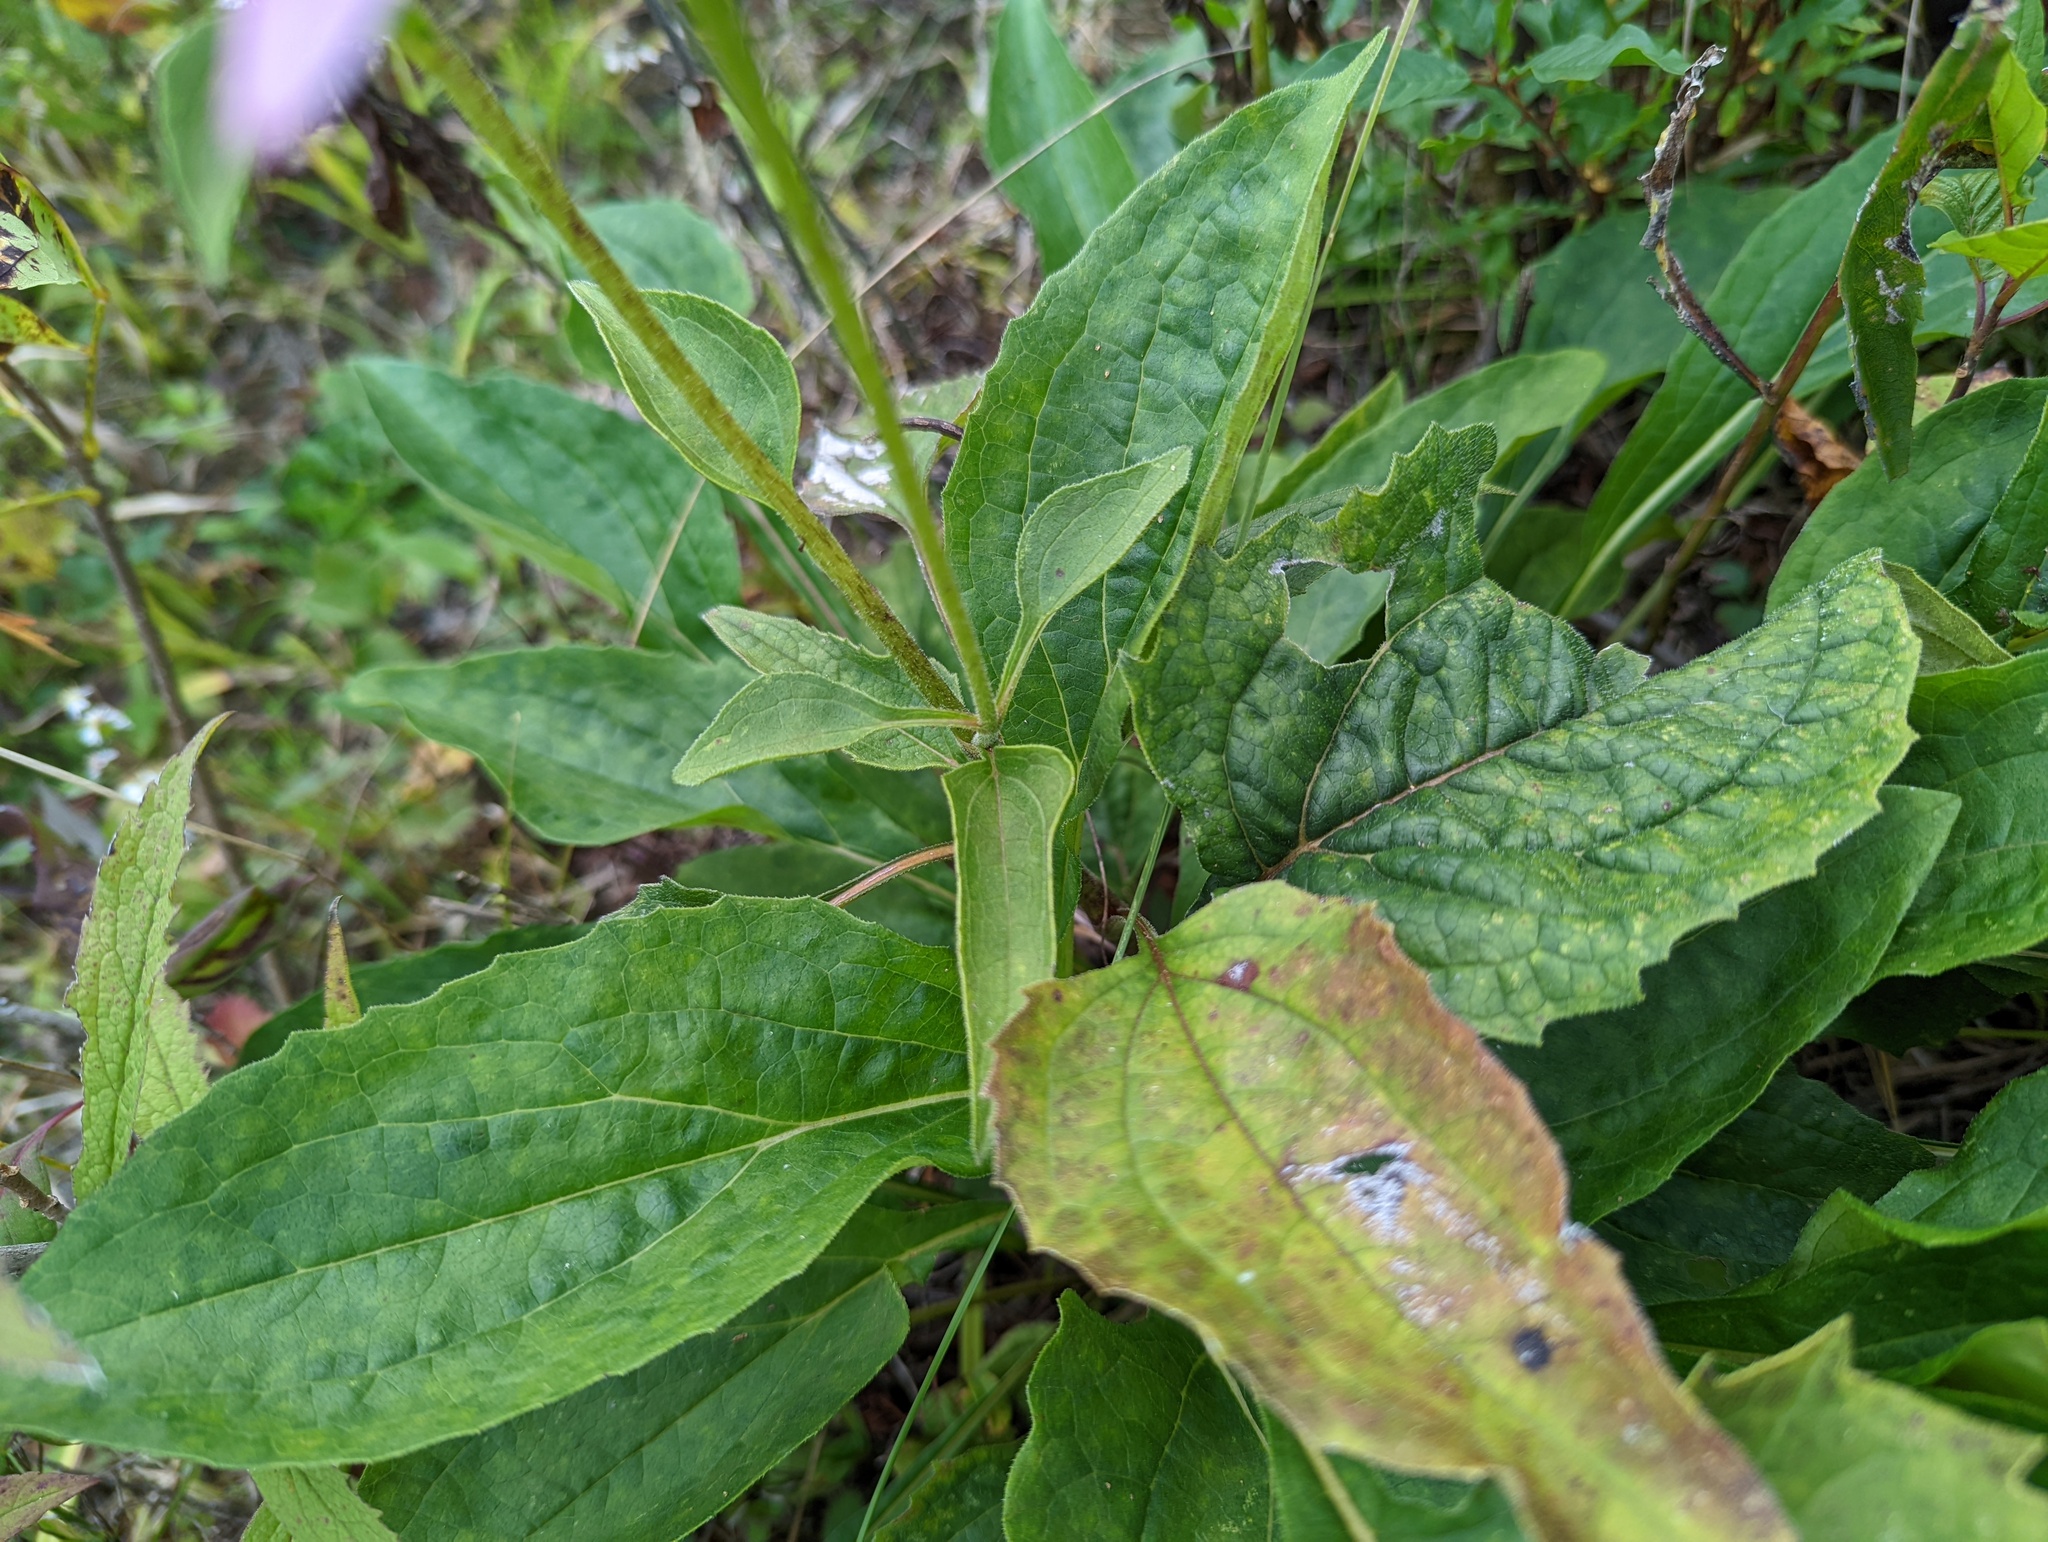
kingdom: Plantae
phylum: Tracheophyta
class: Magnoliopsida
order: Asterales
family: Asteraceae
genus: Echinacea
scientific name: Echinacea purpurea
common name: Broad-leaved purple coneflower
